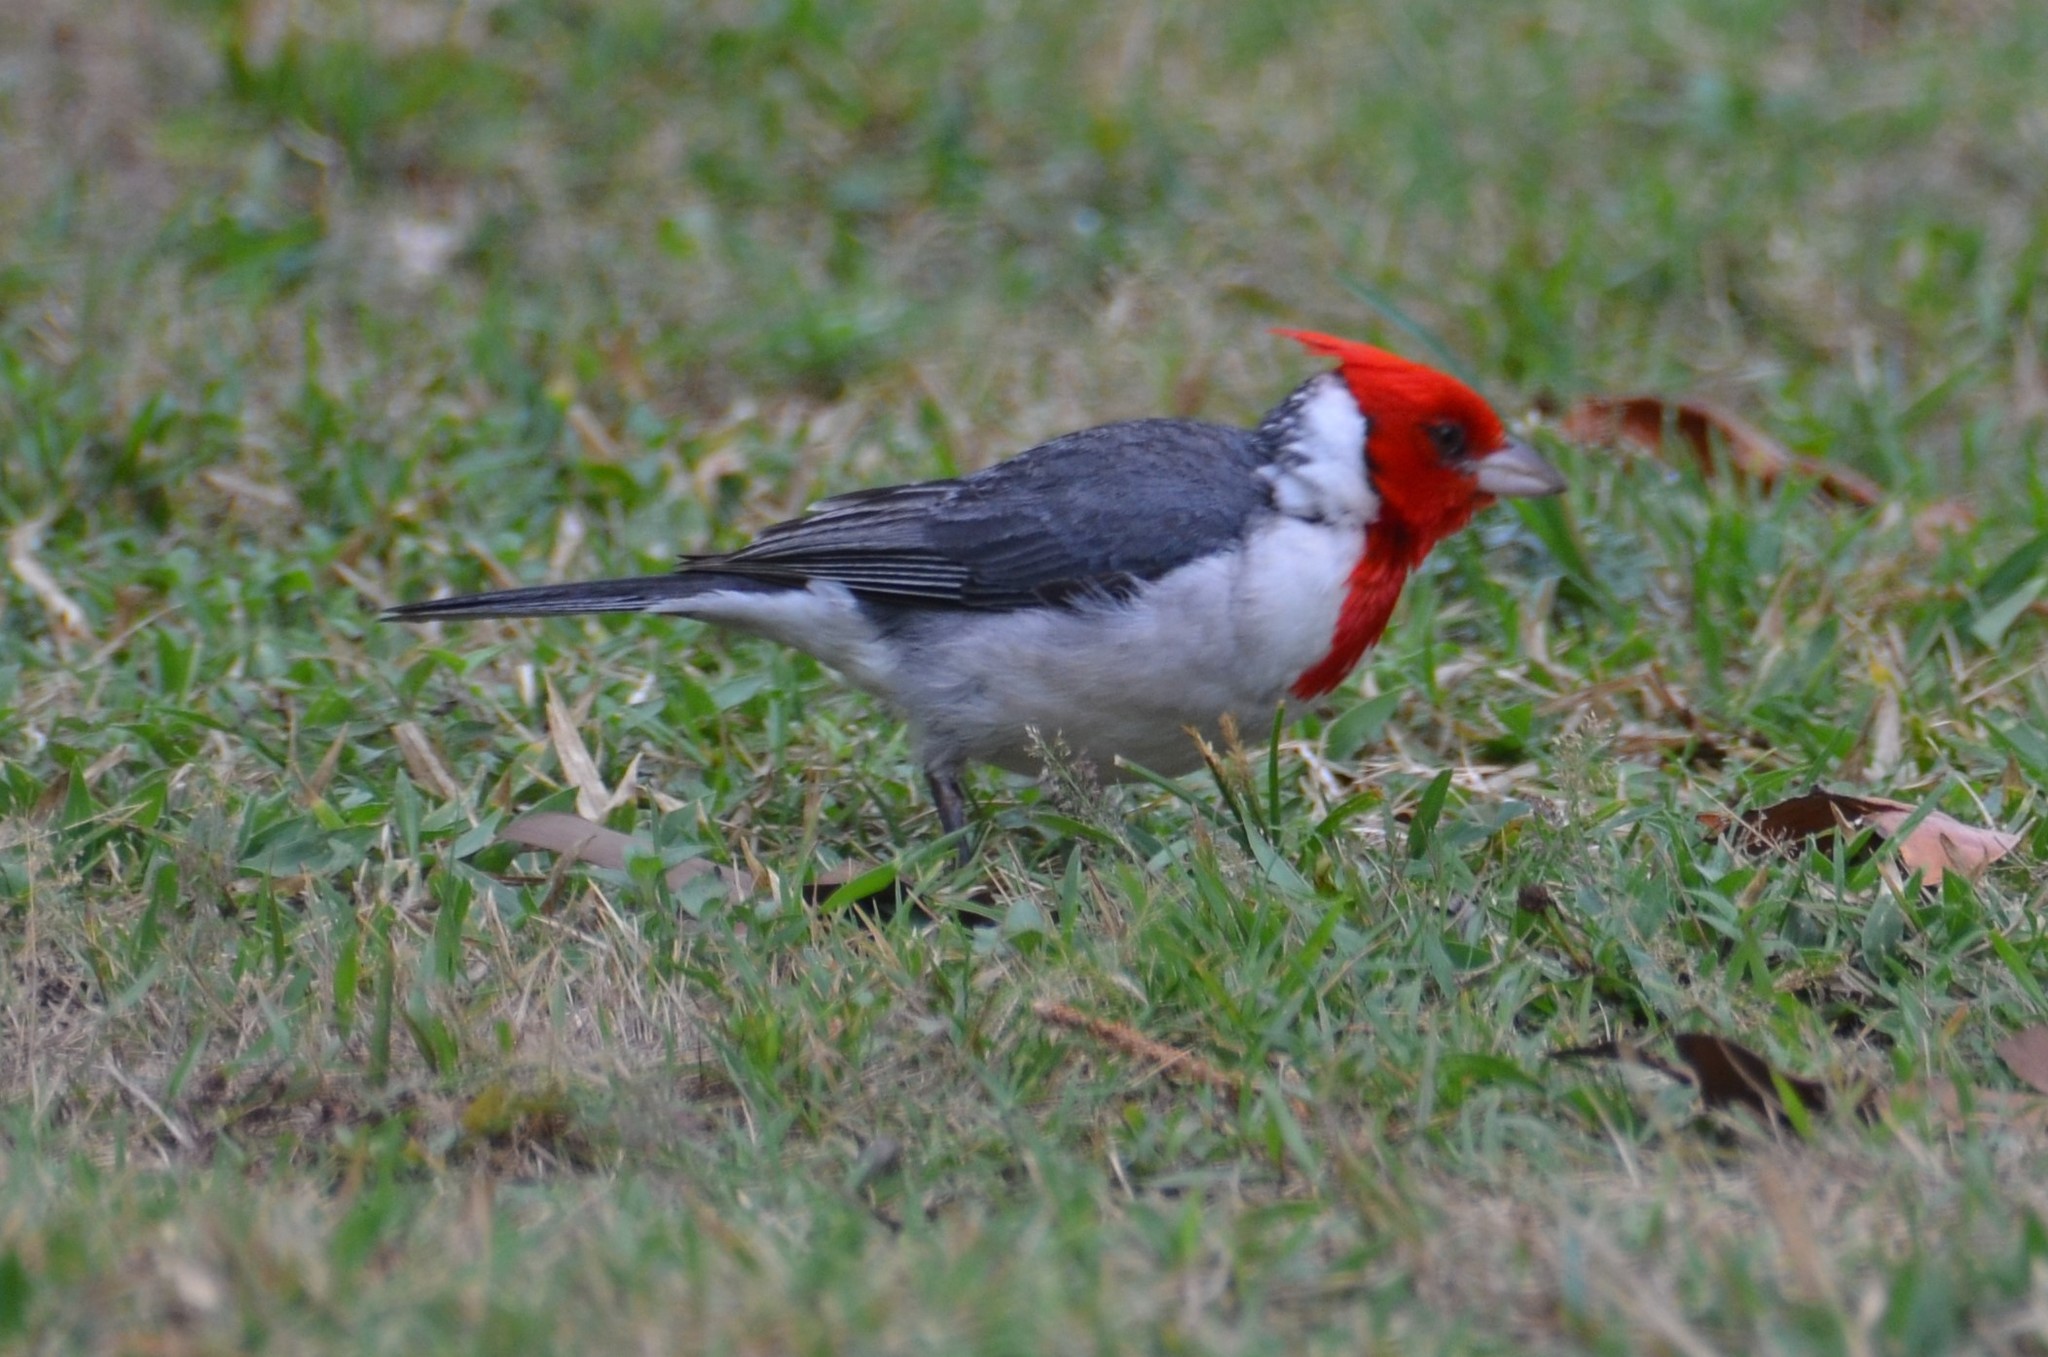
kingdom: Animalia
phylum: Chordata
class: Aves
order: Passeriformes
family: Thraupidae
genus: Paroaria
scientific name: Paroaria coronata
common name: Red-crested cardinal
